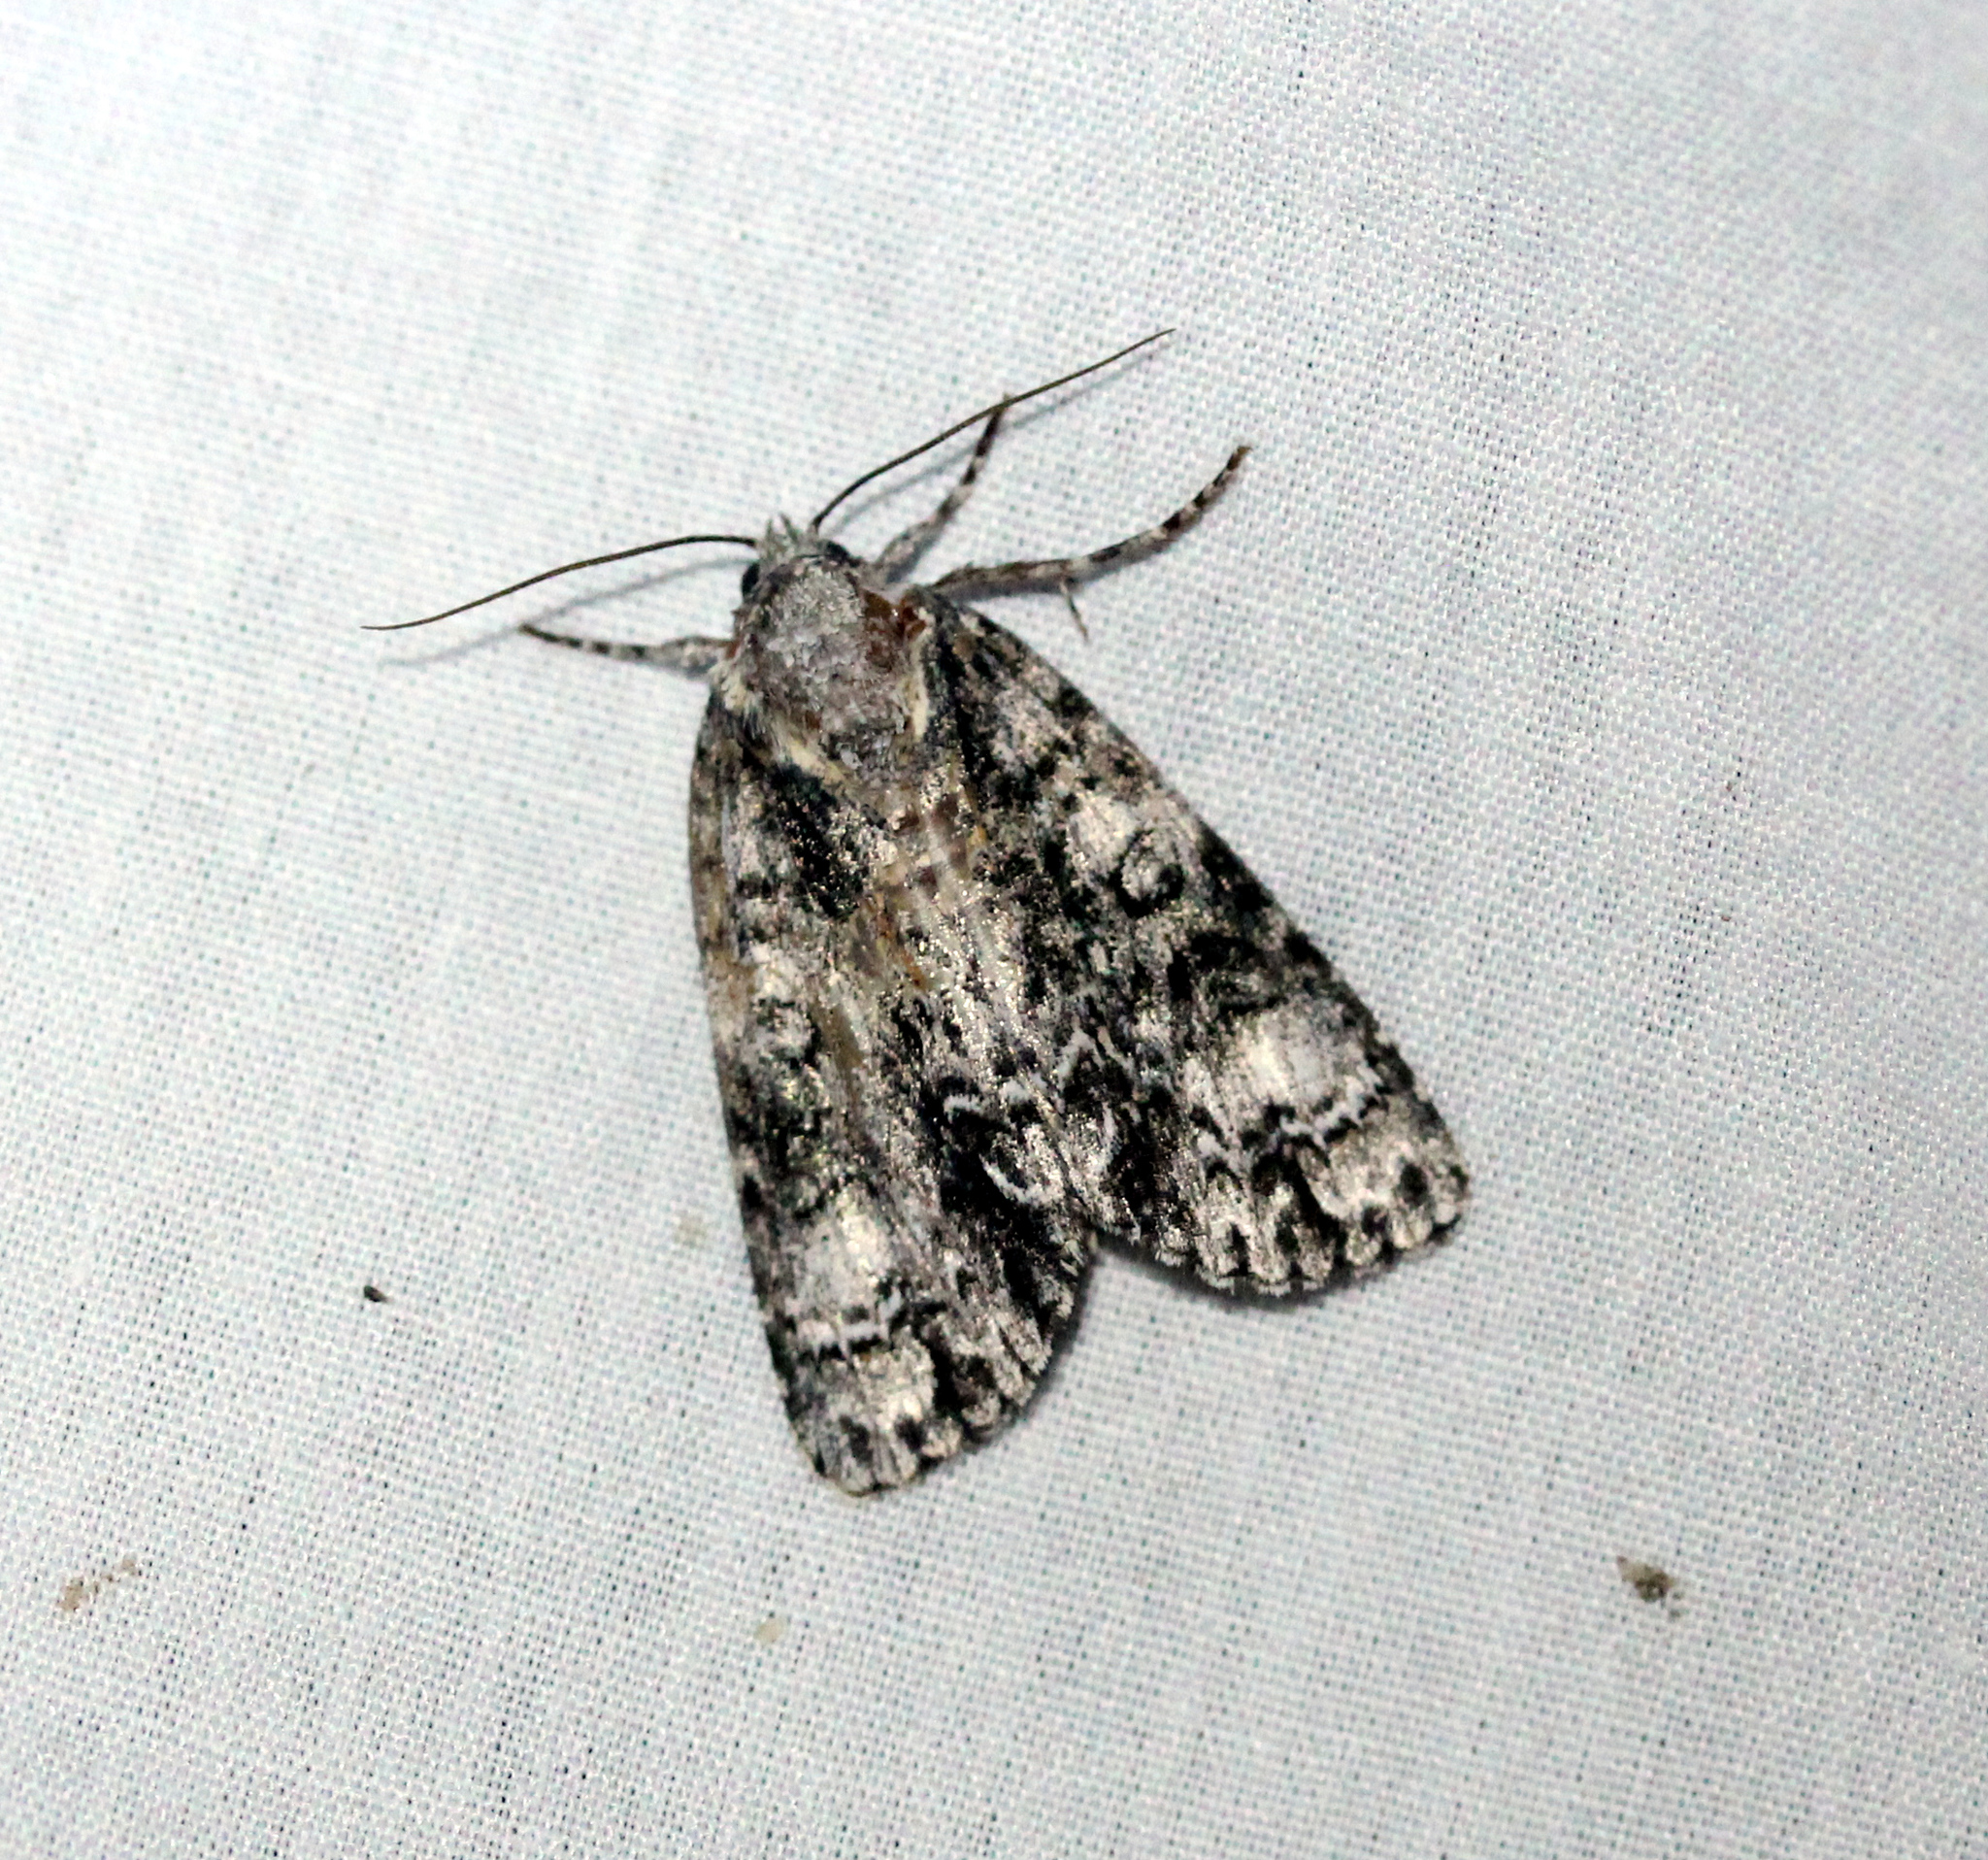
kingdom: Animalia
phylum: Arthropoda
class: Insecta
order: Lepidoptera
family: Noctuidae
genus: Acronicta
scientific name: Acronicta superans
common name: Splendid dagger
